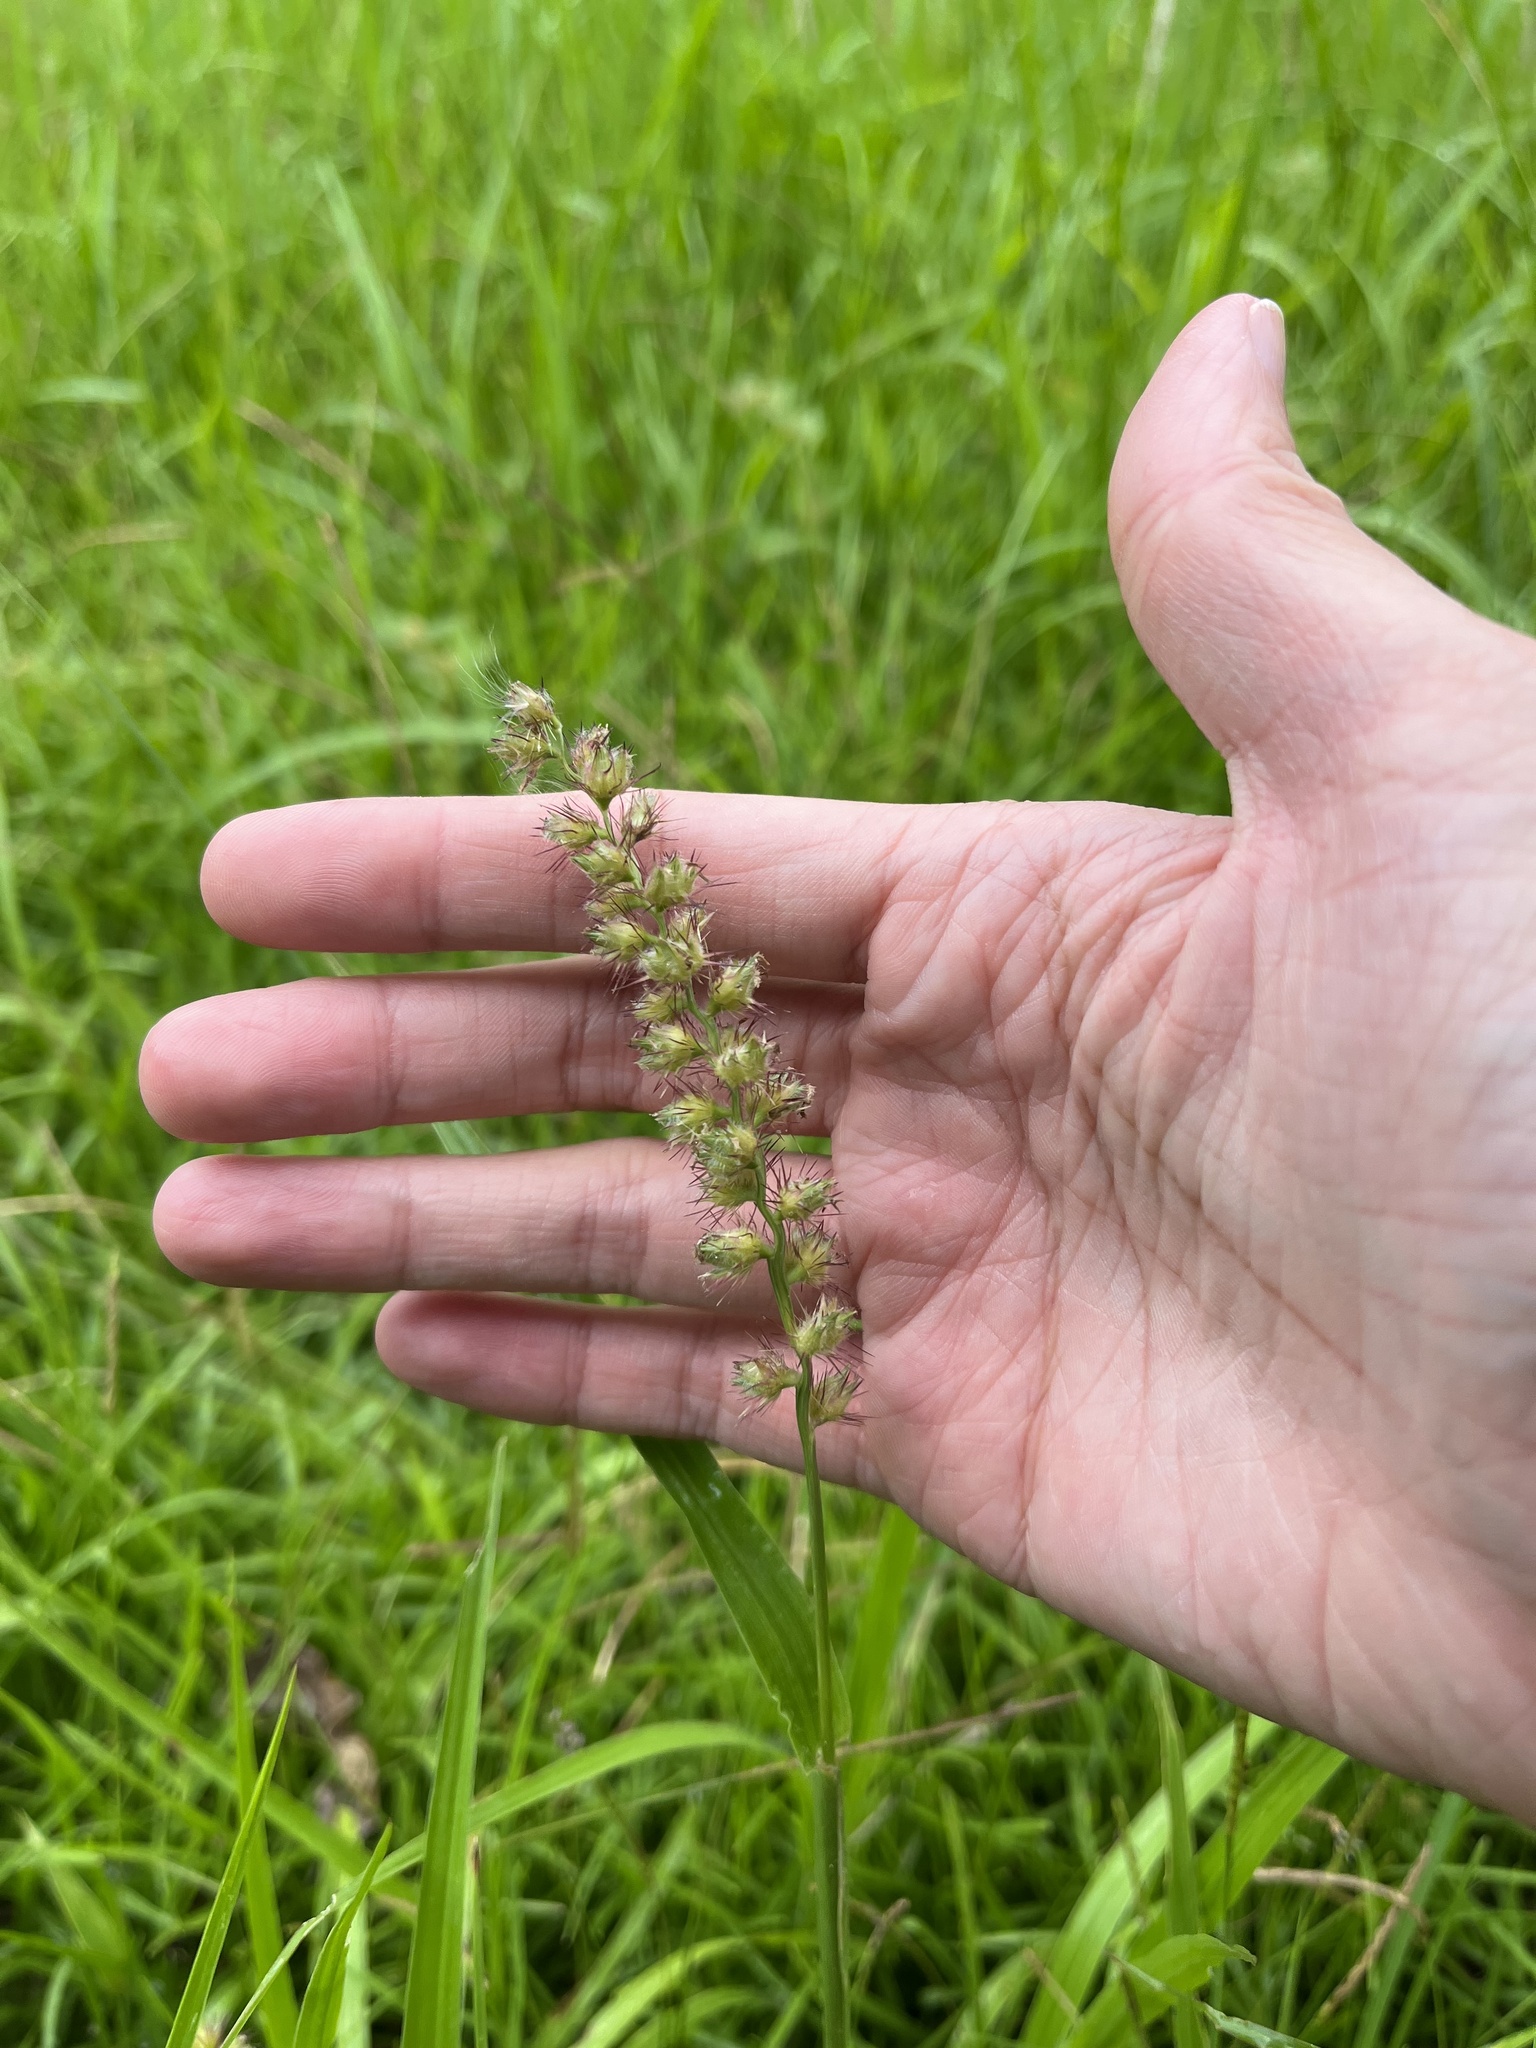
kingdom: Plantae
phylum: Tracheophyta
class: Liliopsida
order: Poales
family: Poaceae
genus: Cenchrus
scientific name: Cenchrus echinatus
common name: Southern sandbur
